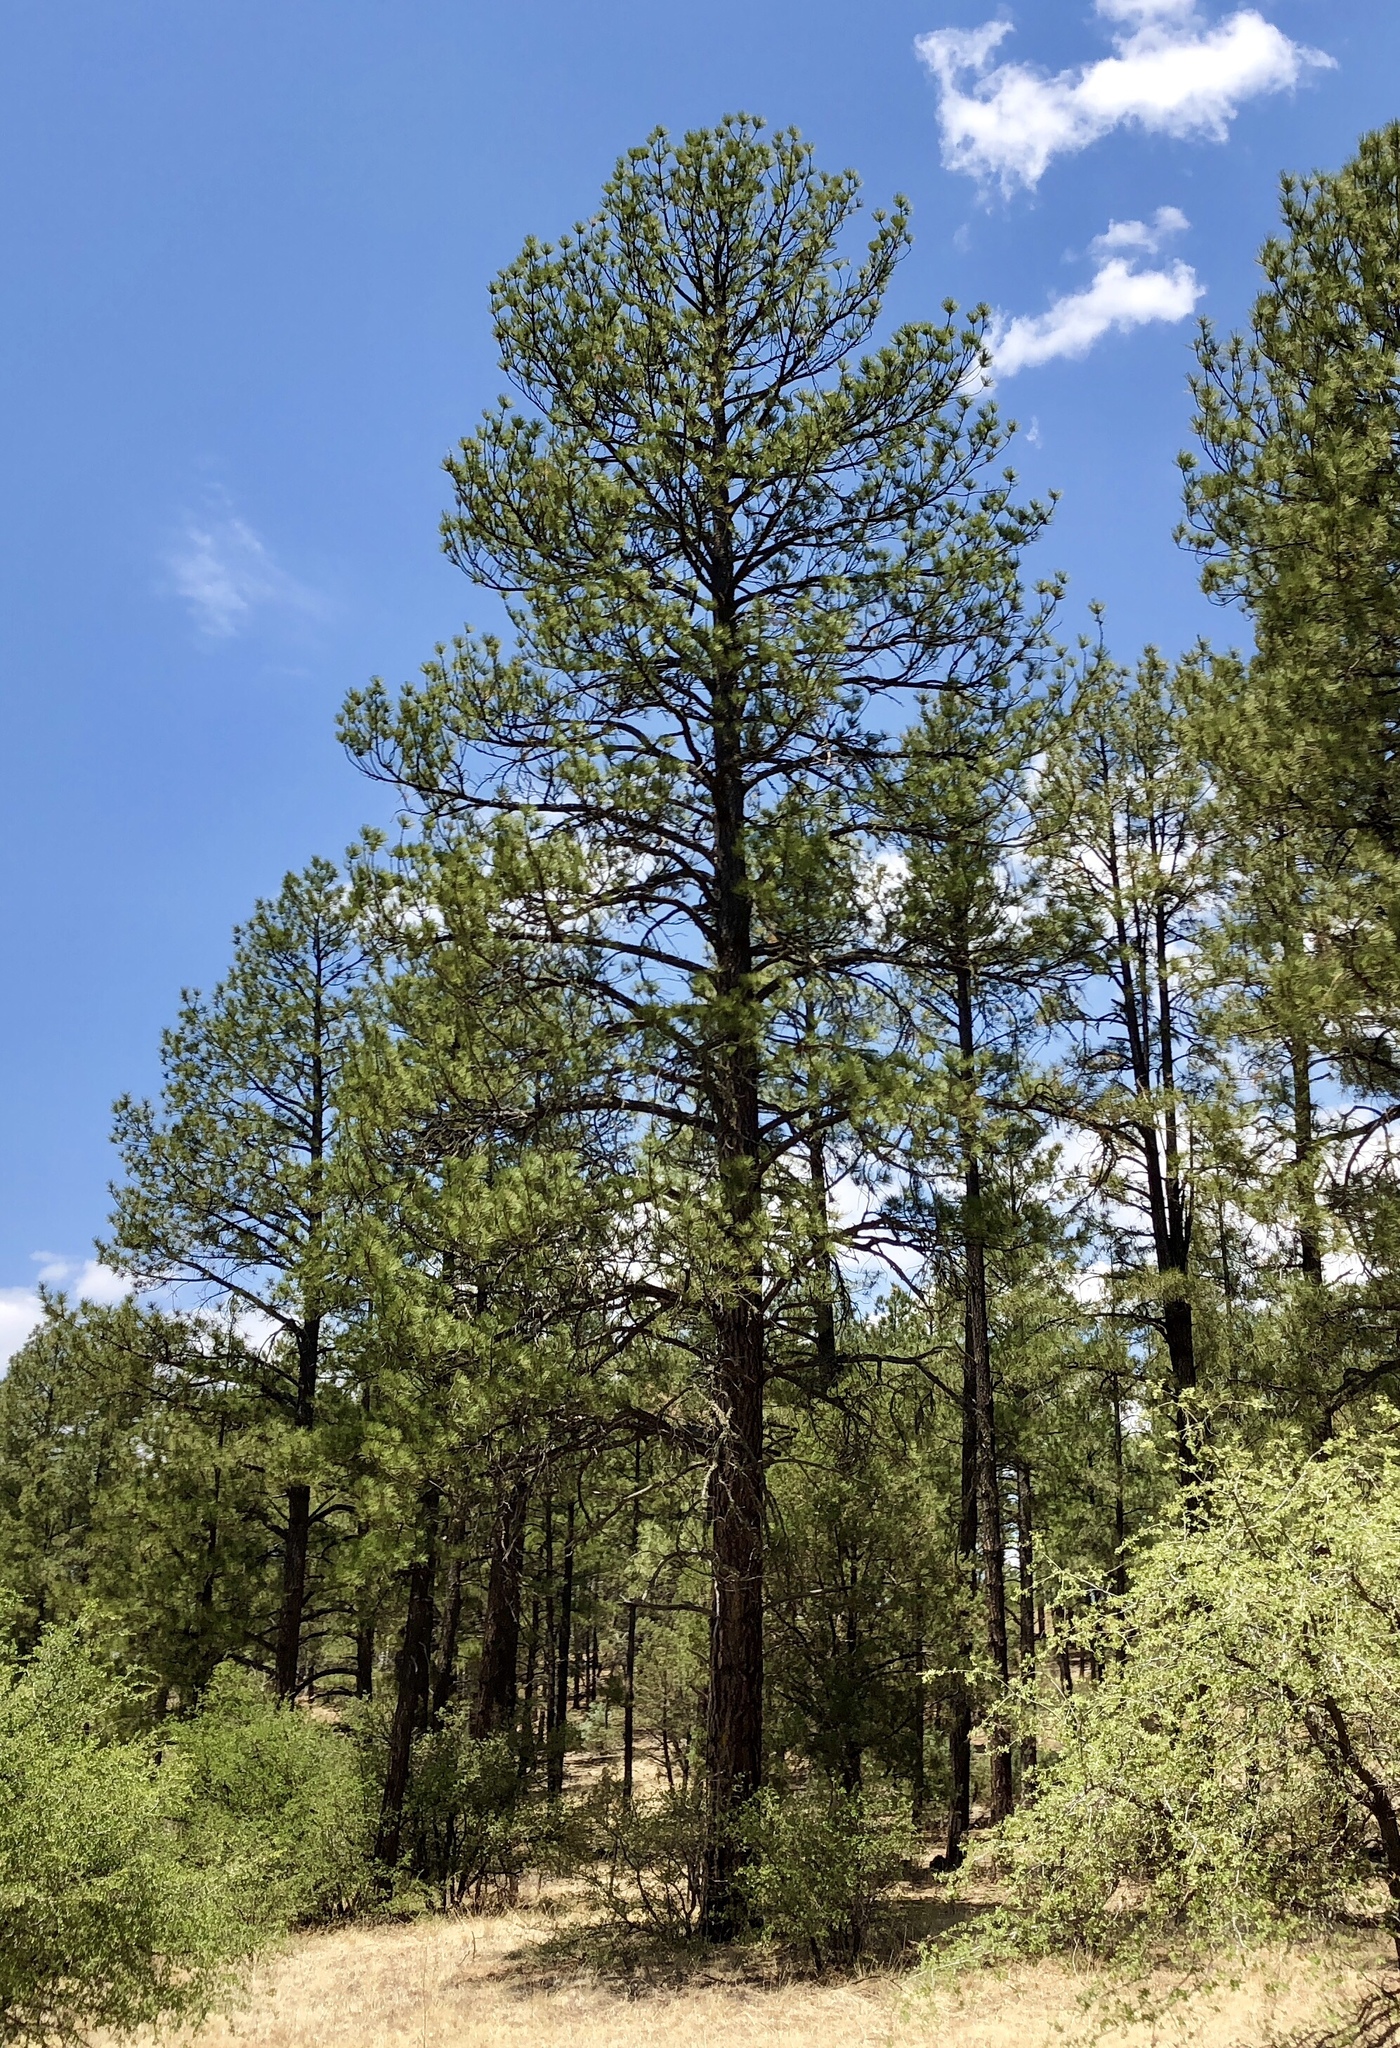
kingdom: Plantae
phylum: Tracheophyta
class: Pinopsida
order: Pinales
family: Pinaceae
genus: Pinus
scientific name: Pinus ponderosa
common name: Western yellow-pine
